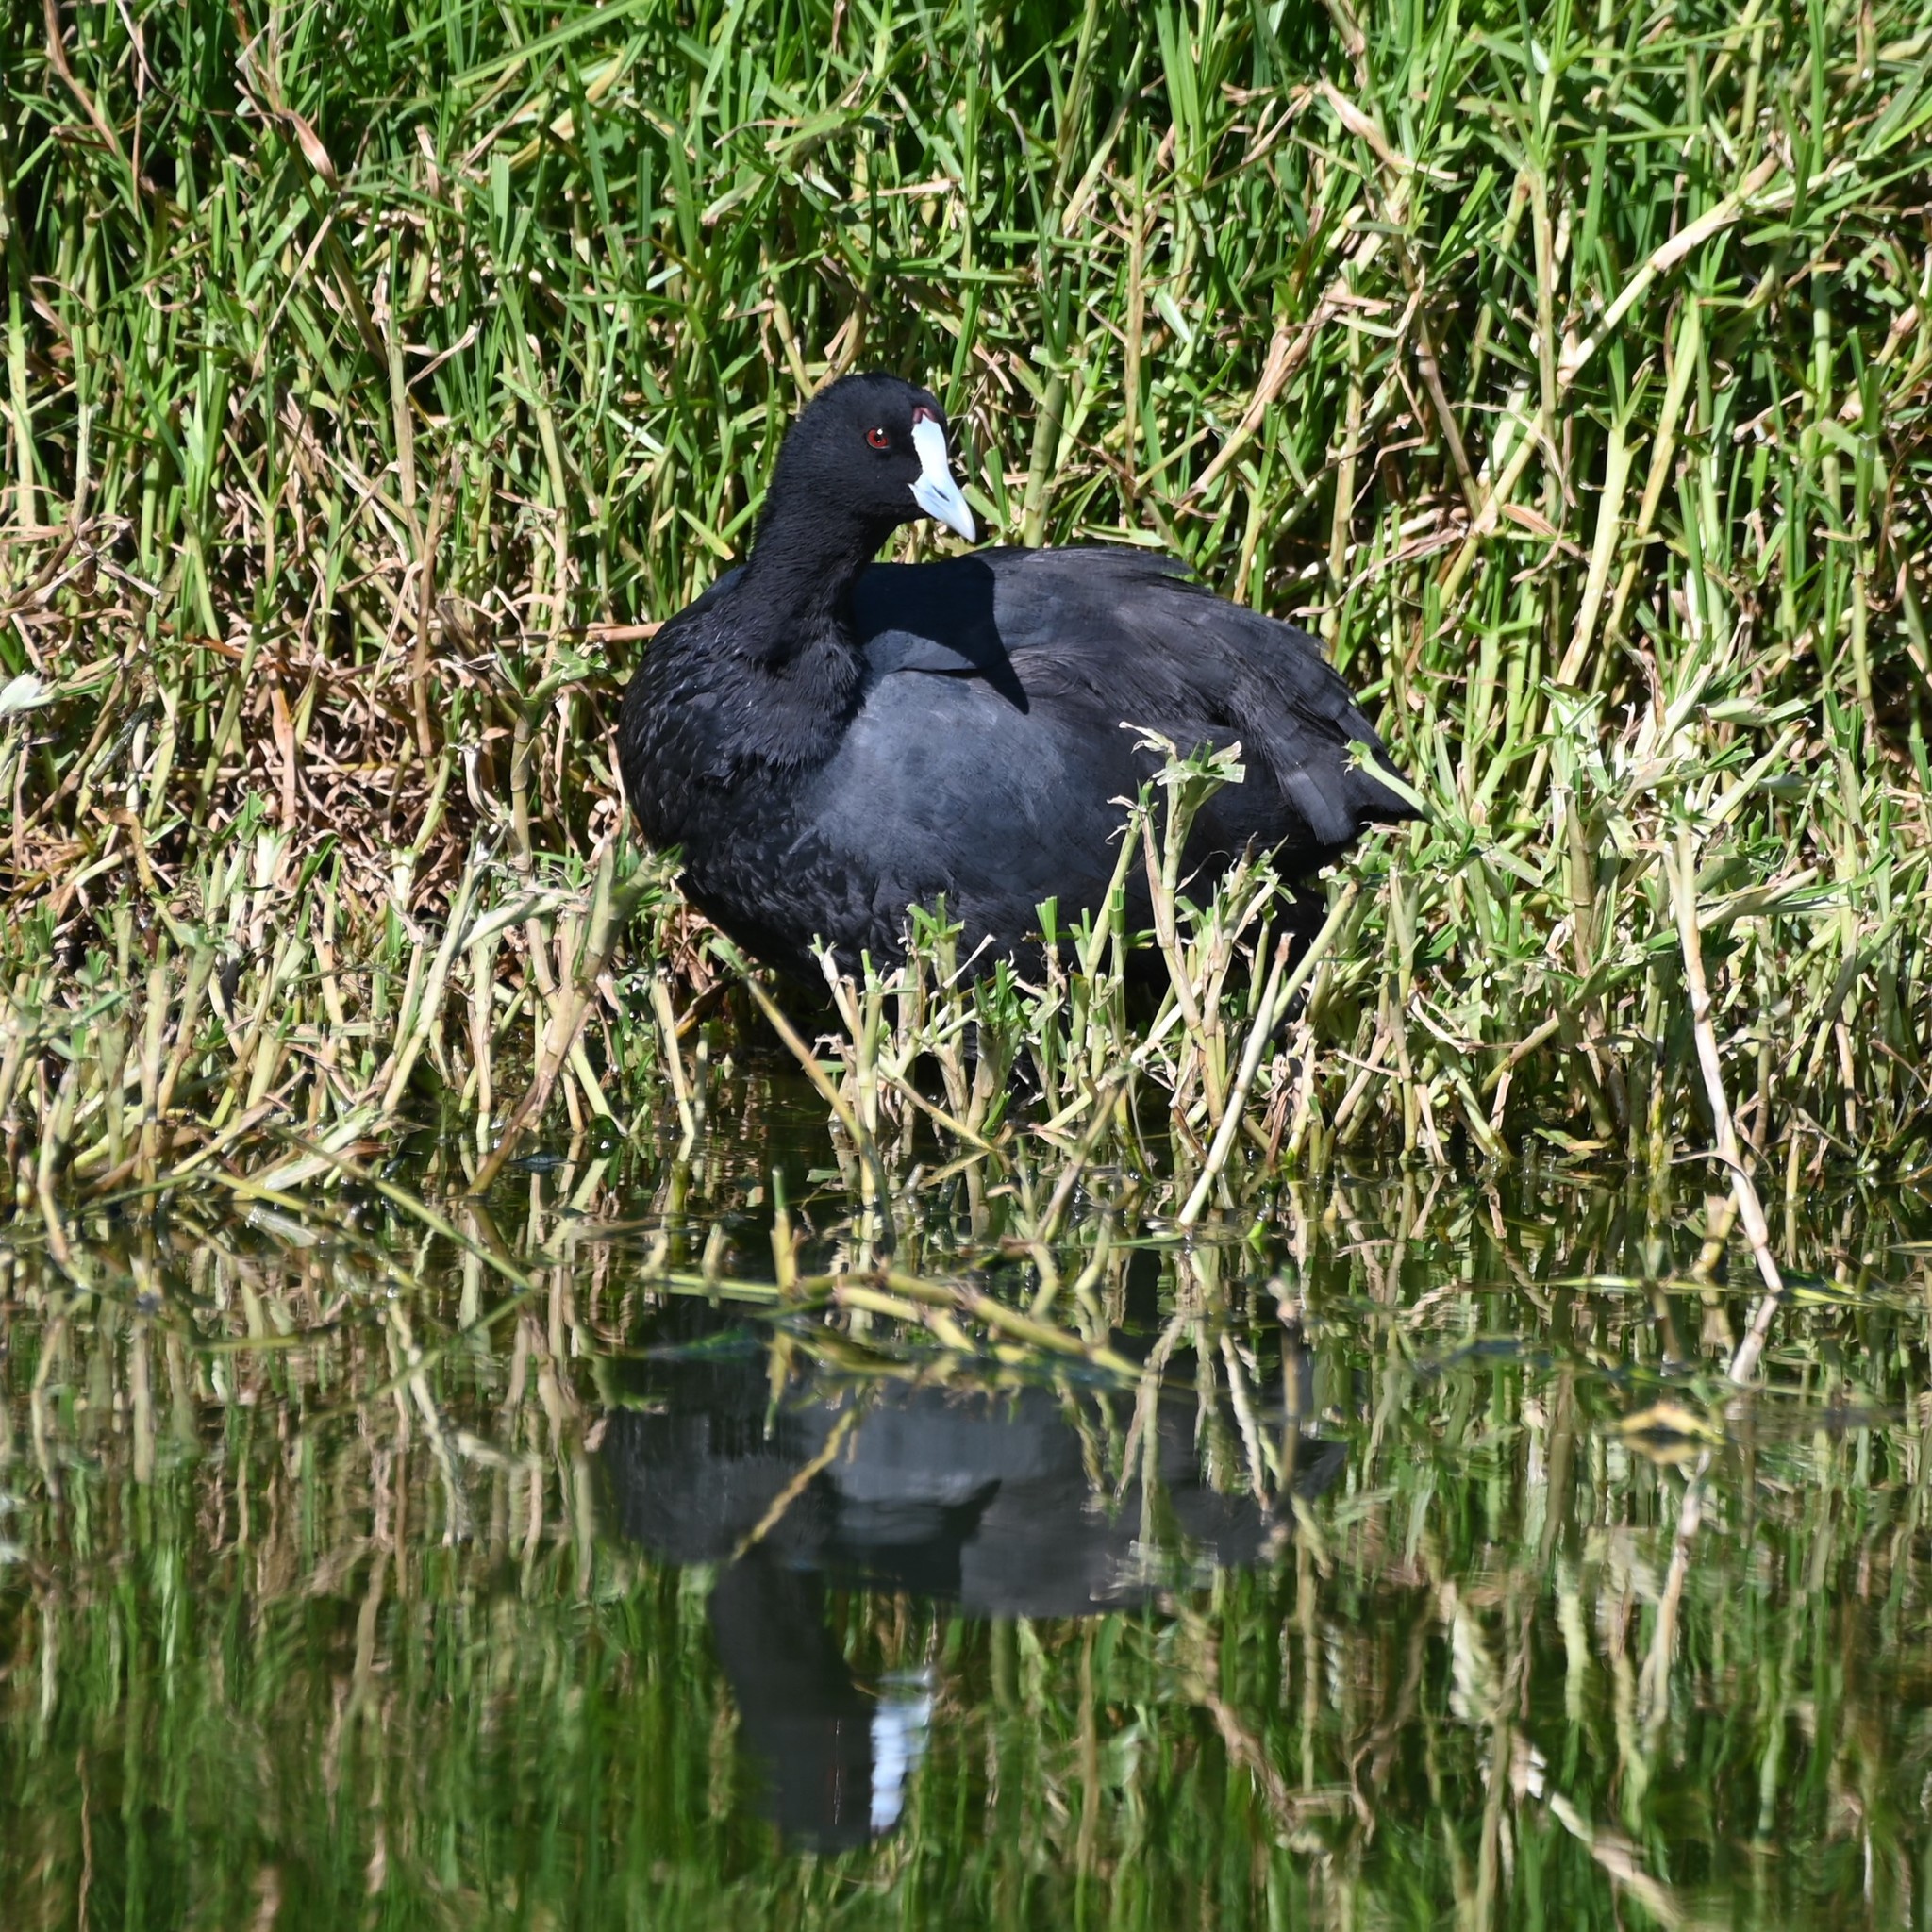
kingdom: Animalia
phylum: Chordata
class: Aves
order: Gruiformes
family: Rallidae
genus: Fulica
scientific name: Fulica cristata
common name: Red-knobbed coot
